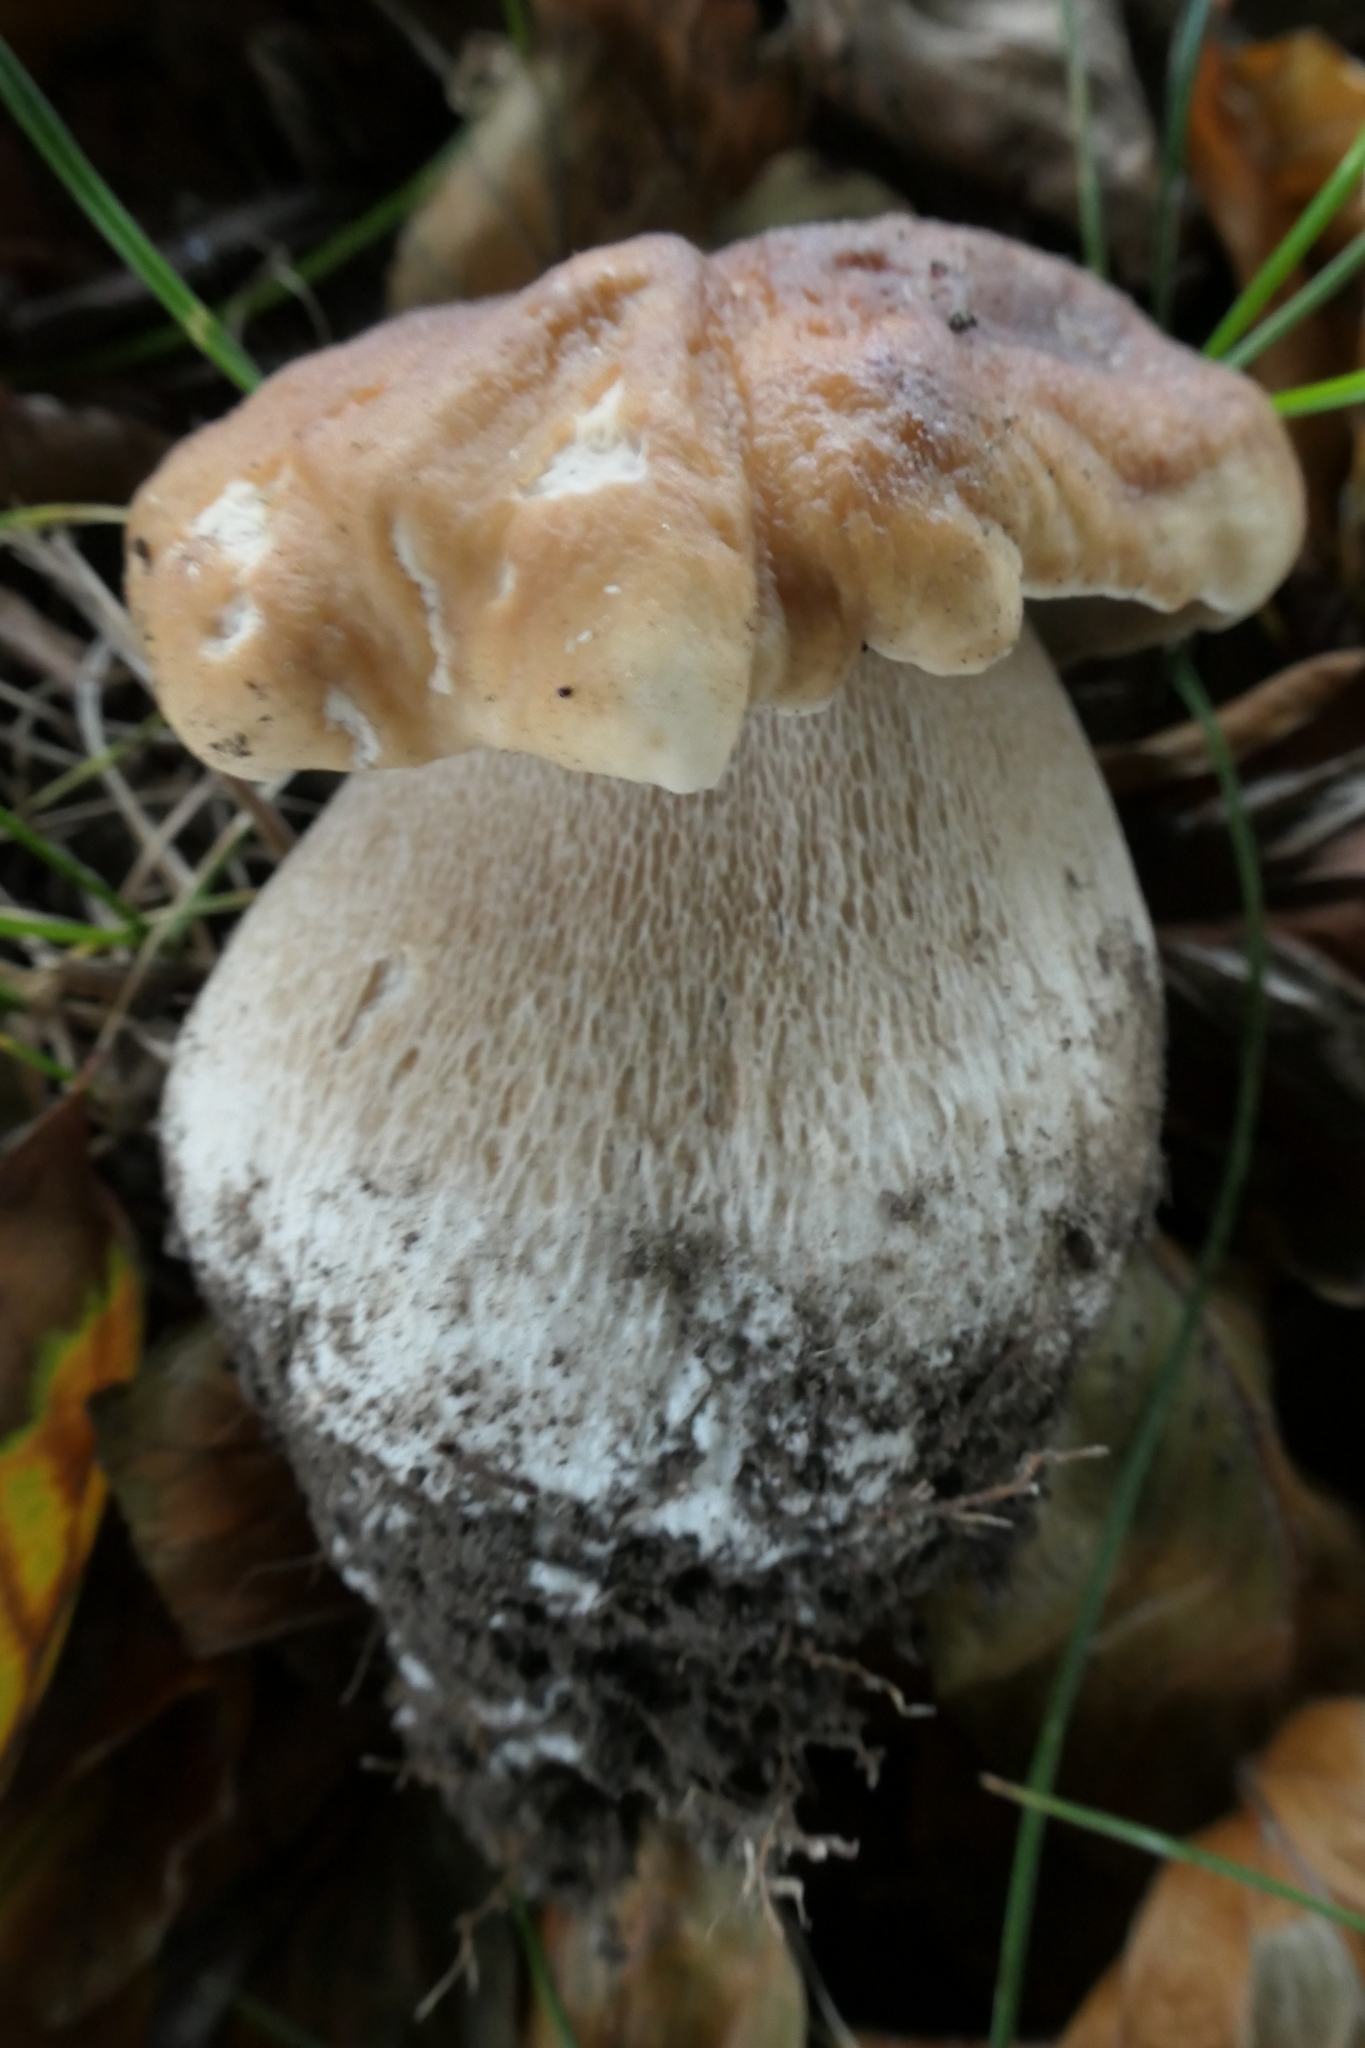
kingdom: Fungi
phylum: Basidiomycota
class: Agaricomycetes
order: Boletales
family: Boletaceae
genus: Boletus
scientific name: Boletus edulis
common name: Cep
